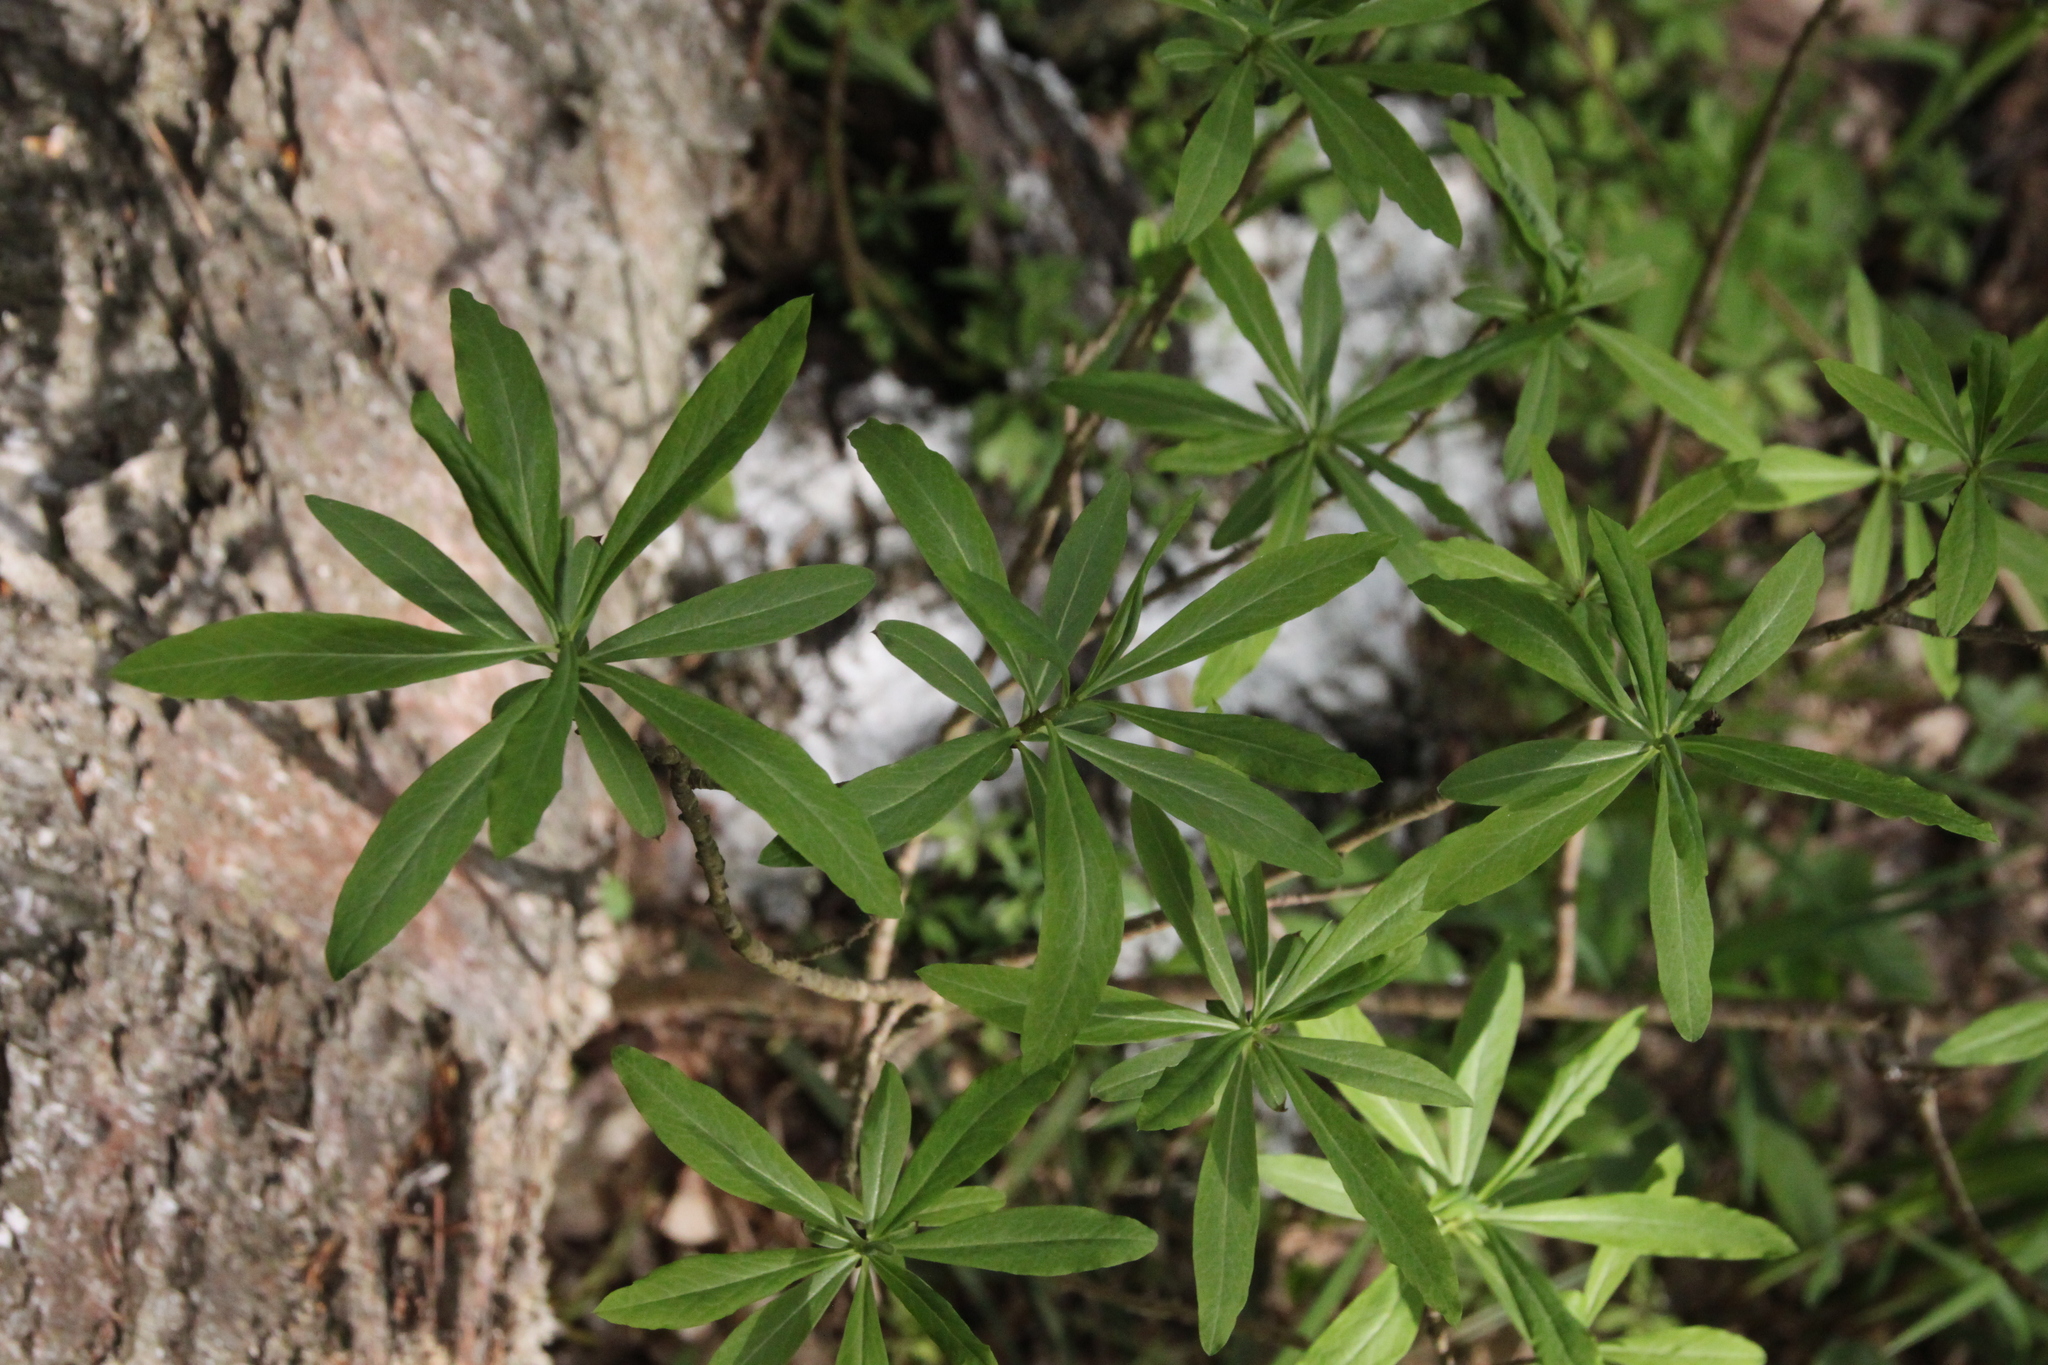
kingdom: Plantae
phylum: Tracheophyta
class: Magnoliopsida
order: Malvales
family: Thymelaeaceae
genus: Daphne
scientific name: Daphne mezereum
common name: Mezereon
